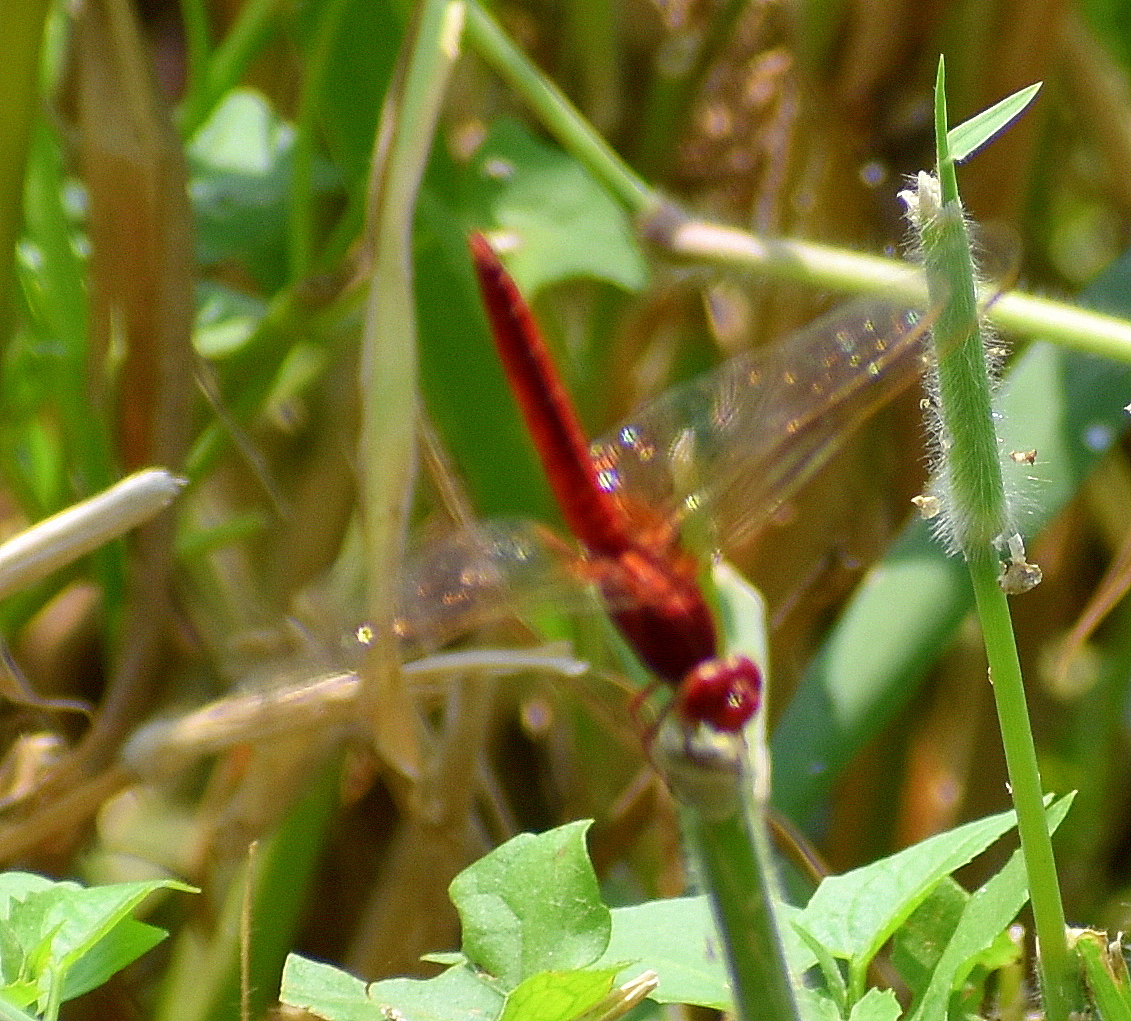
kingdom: Animalia
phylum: Arthropoda
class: Insecta
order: Odonata
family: Libellulidae
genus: Crocothemis
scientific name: Crocothemis servilia
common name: Scarlet skimmer
